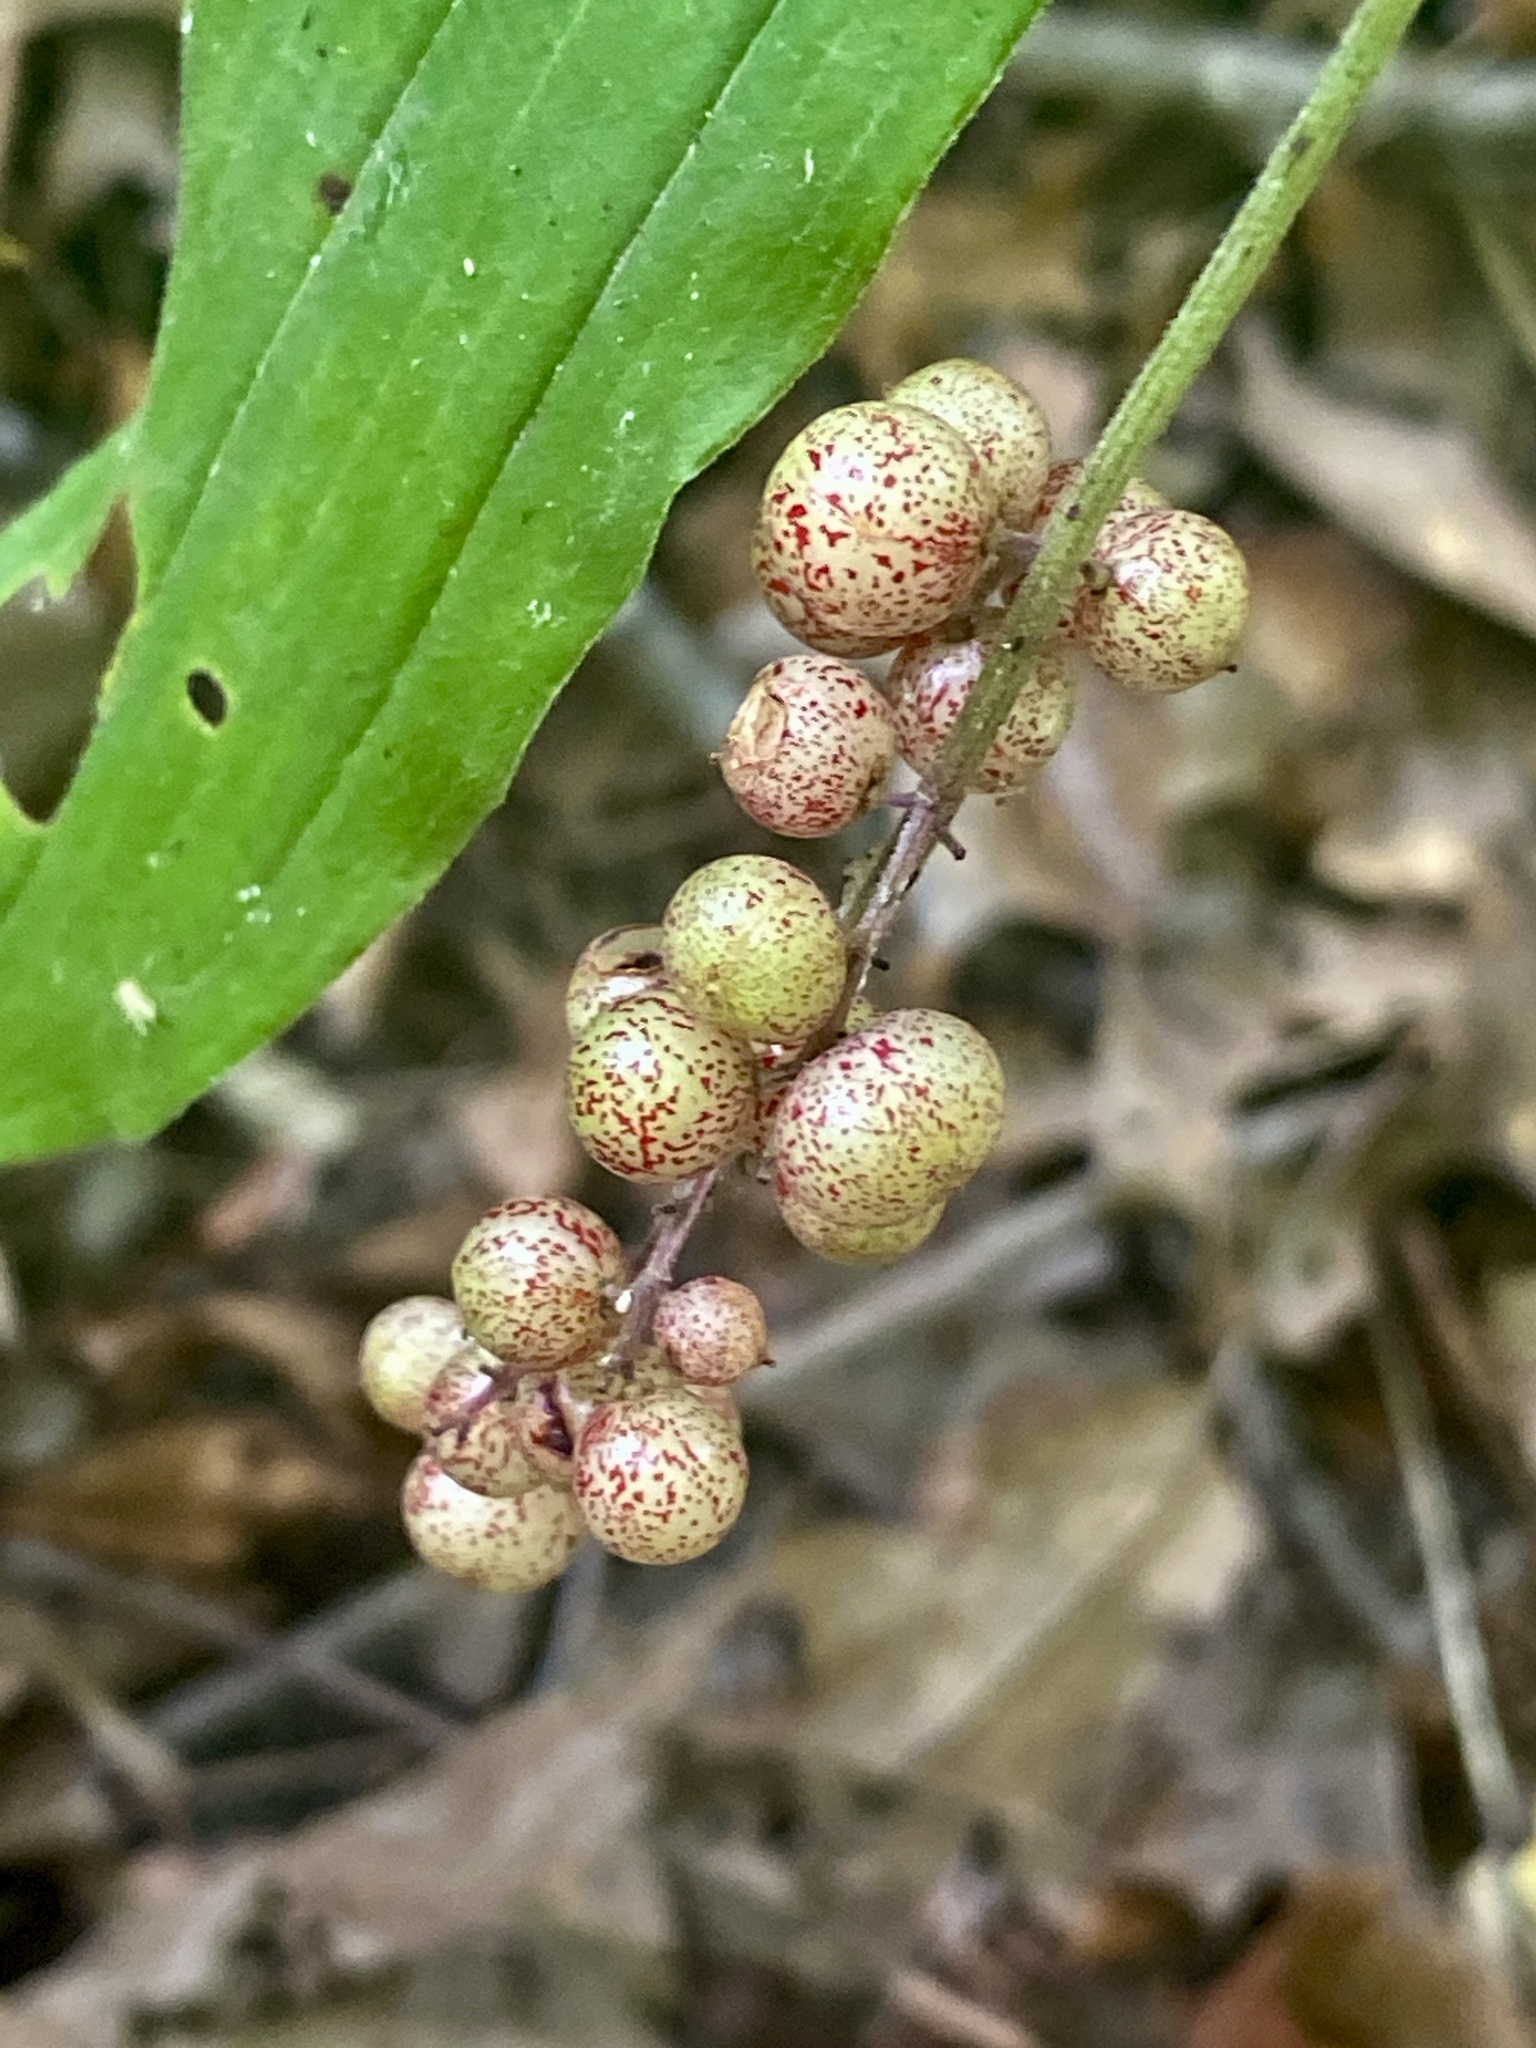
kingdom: Plantae
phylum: Tracheophyta
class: Liliopsida
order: Asparagales
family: Asparagaceae
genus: Maianthemum
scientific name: Maianthemum racemosum
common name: False spikenard
